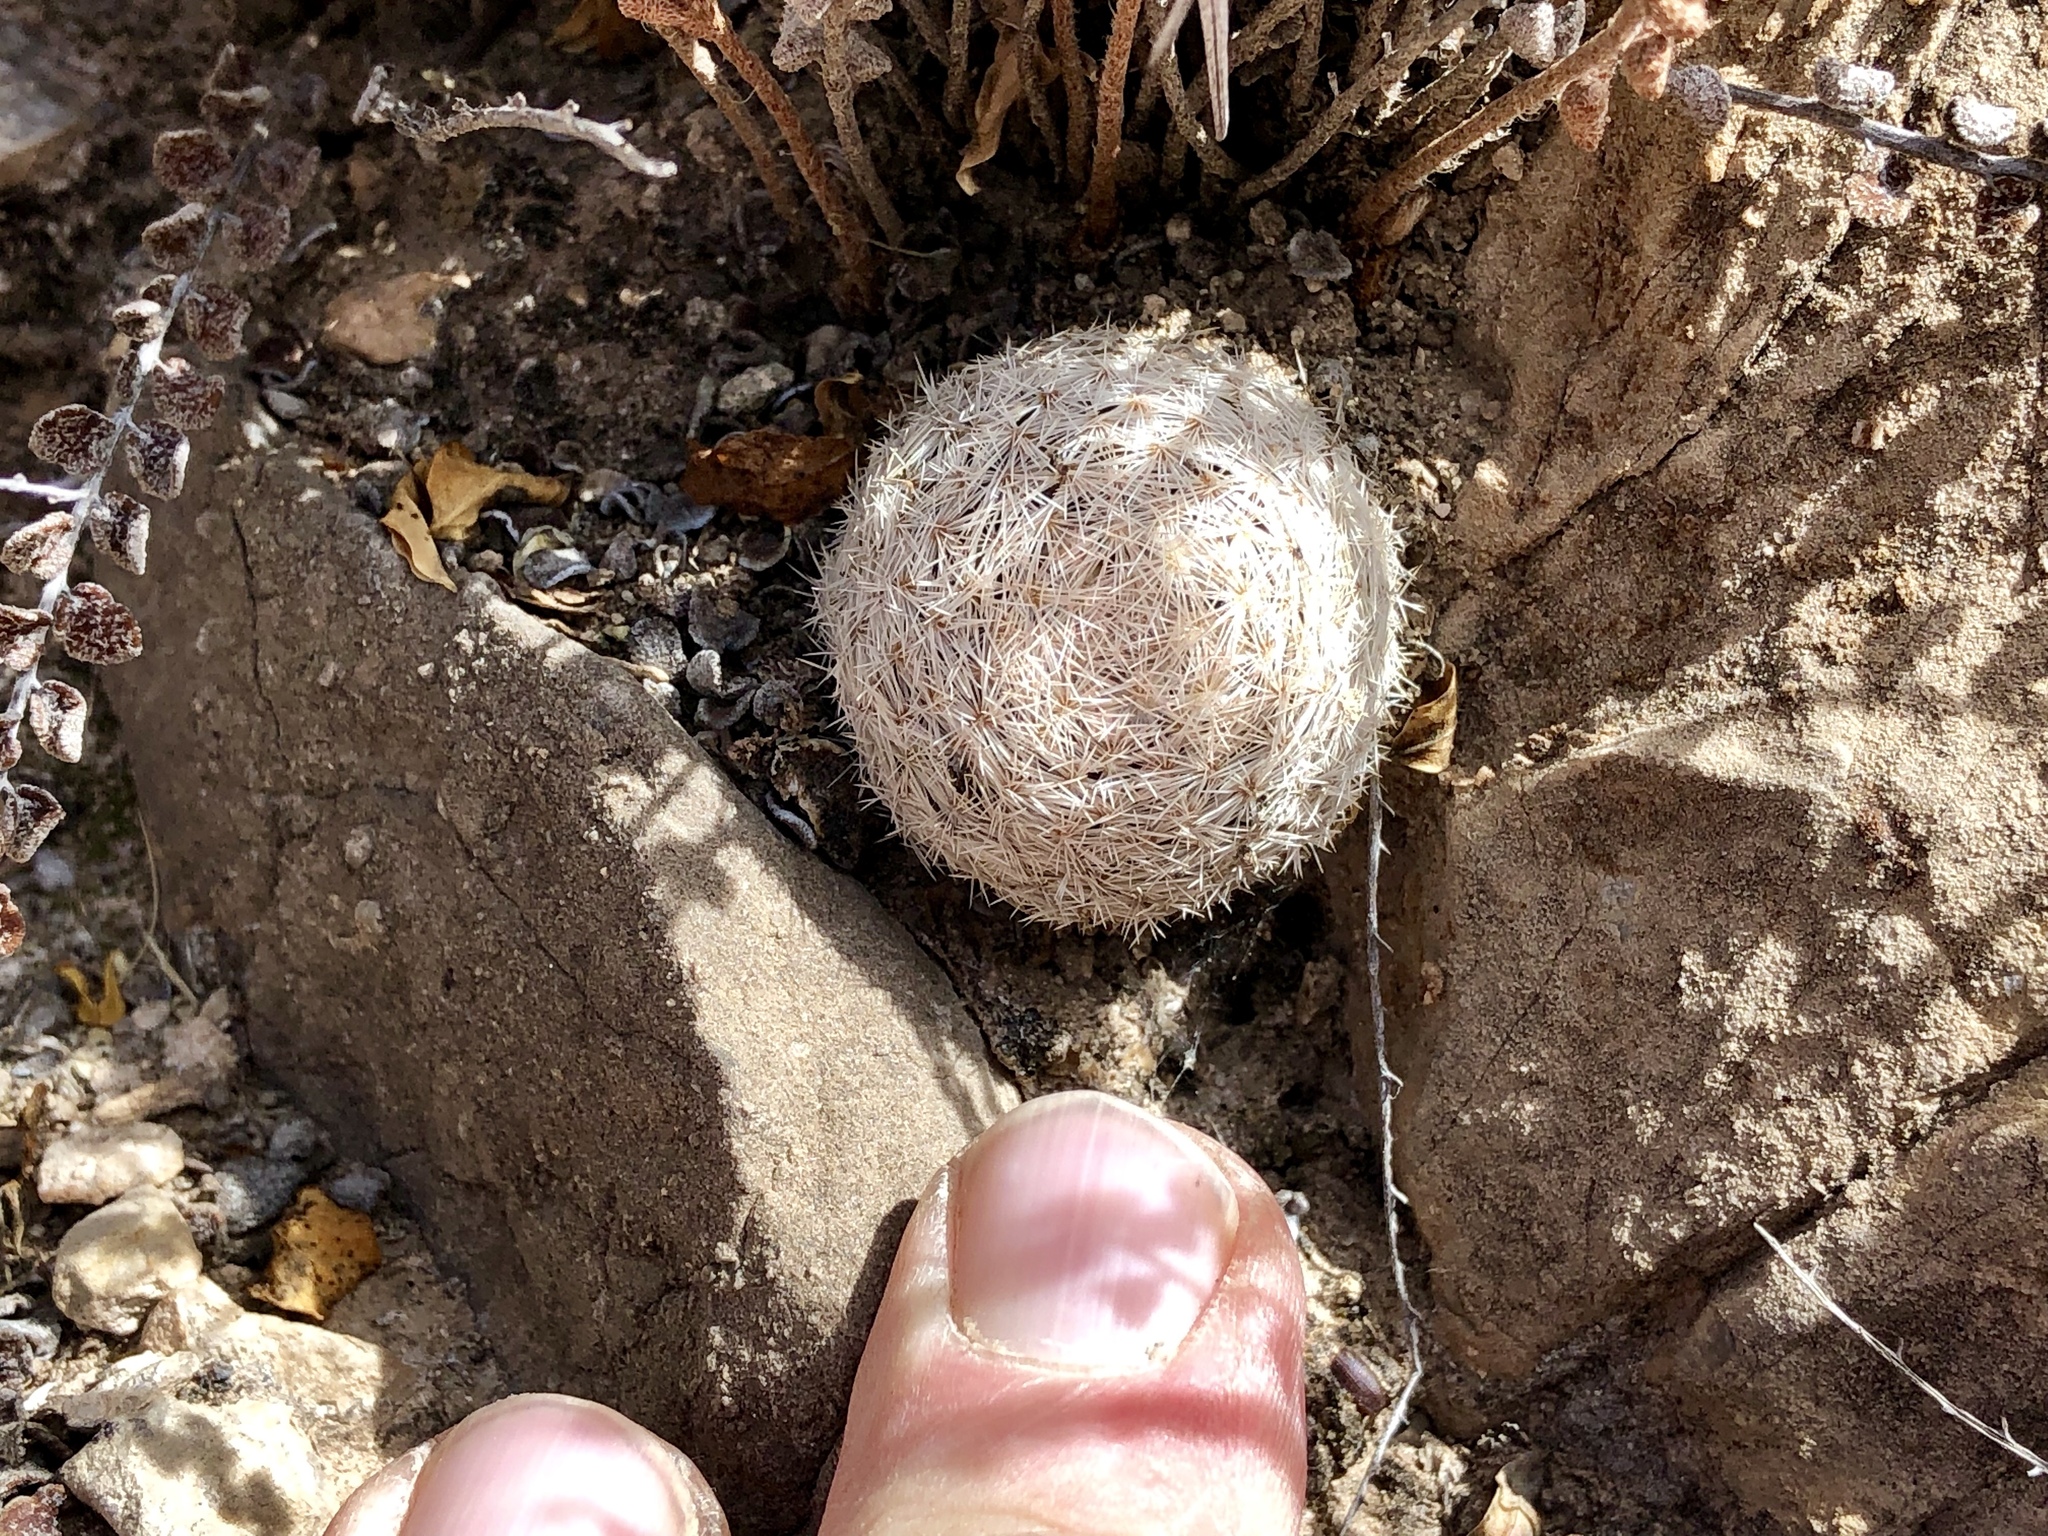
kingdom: Plantae
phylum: Tracheophyta
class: Magnoliopsida
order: Caryophyllales
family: Cactaceae
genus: Mammillaria
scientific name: Mammillaria lasiacantha
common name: Lace-spine nipple cactus
